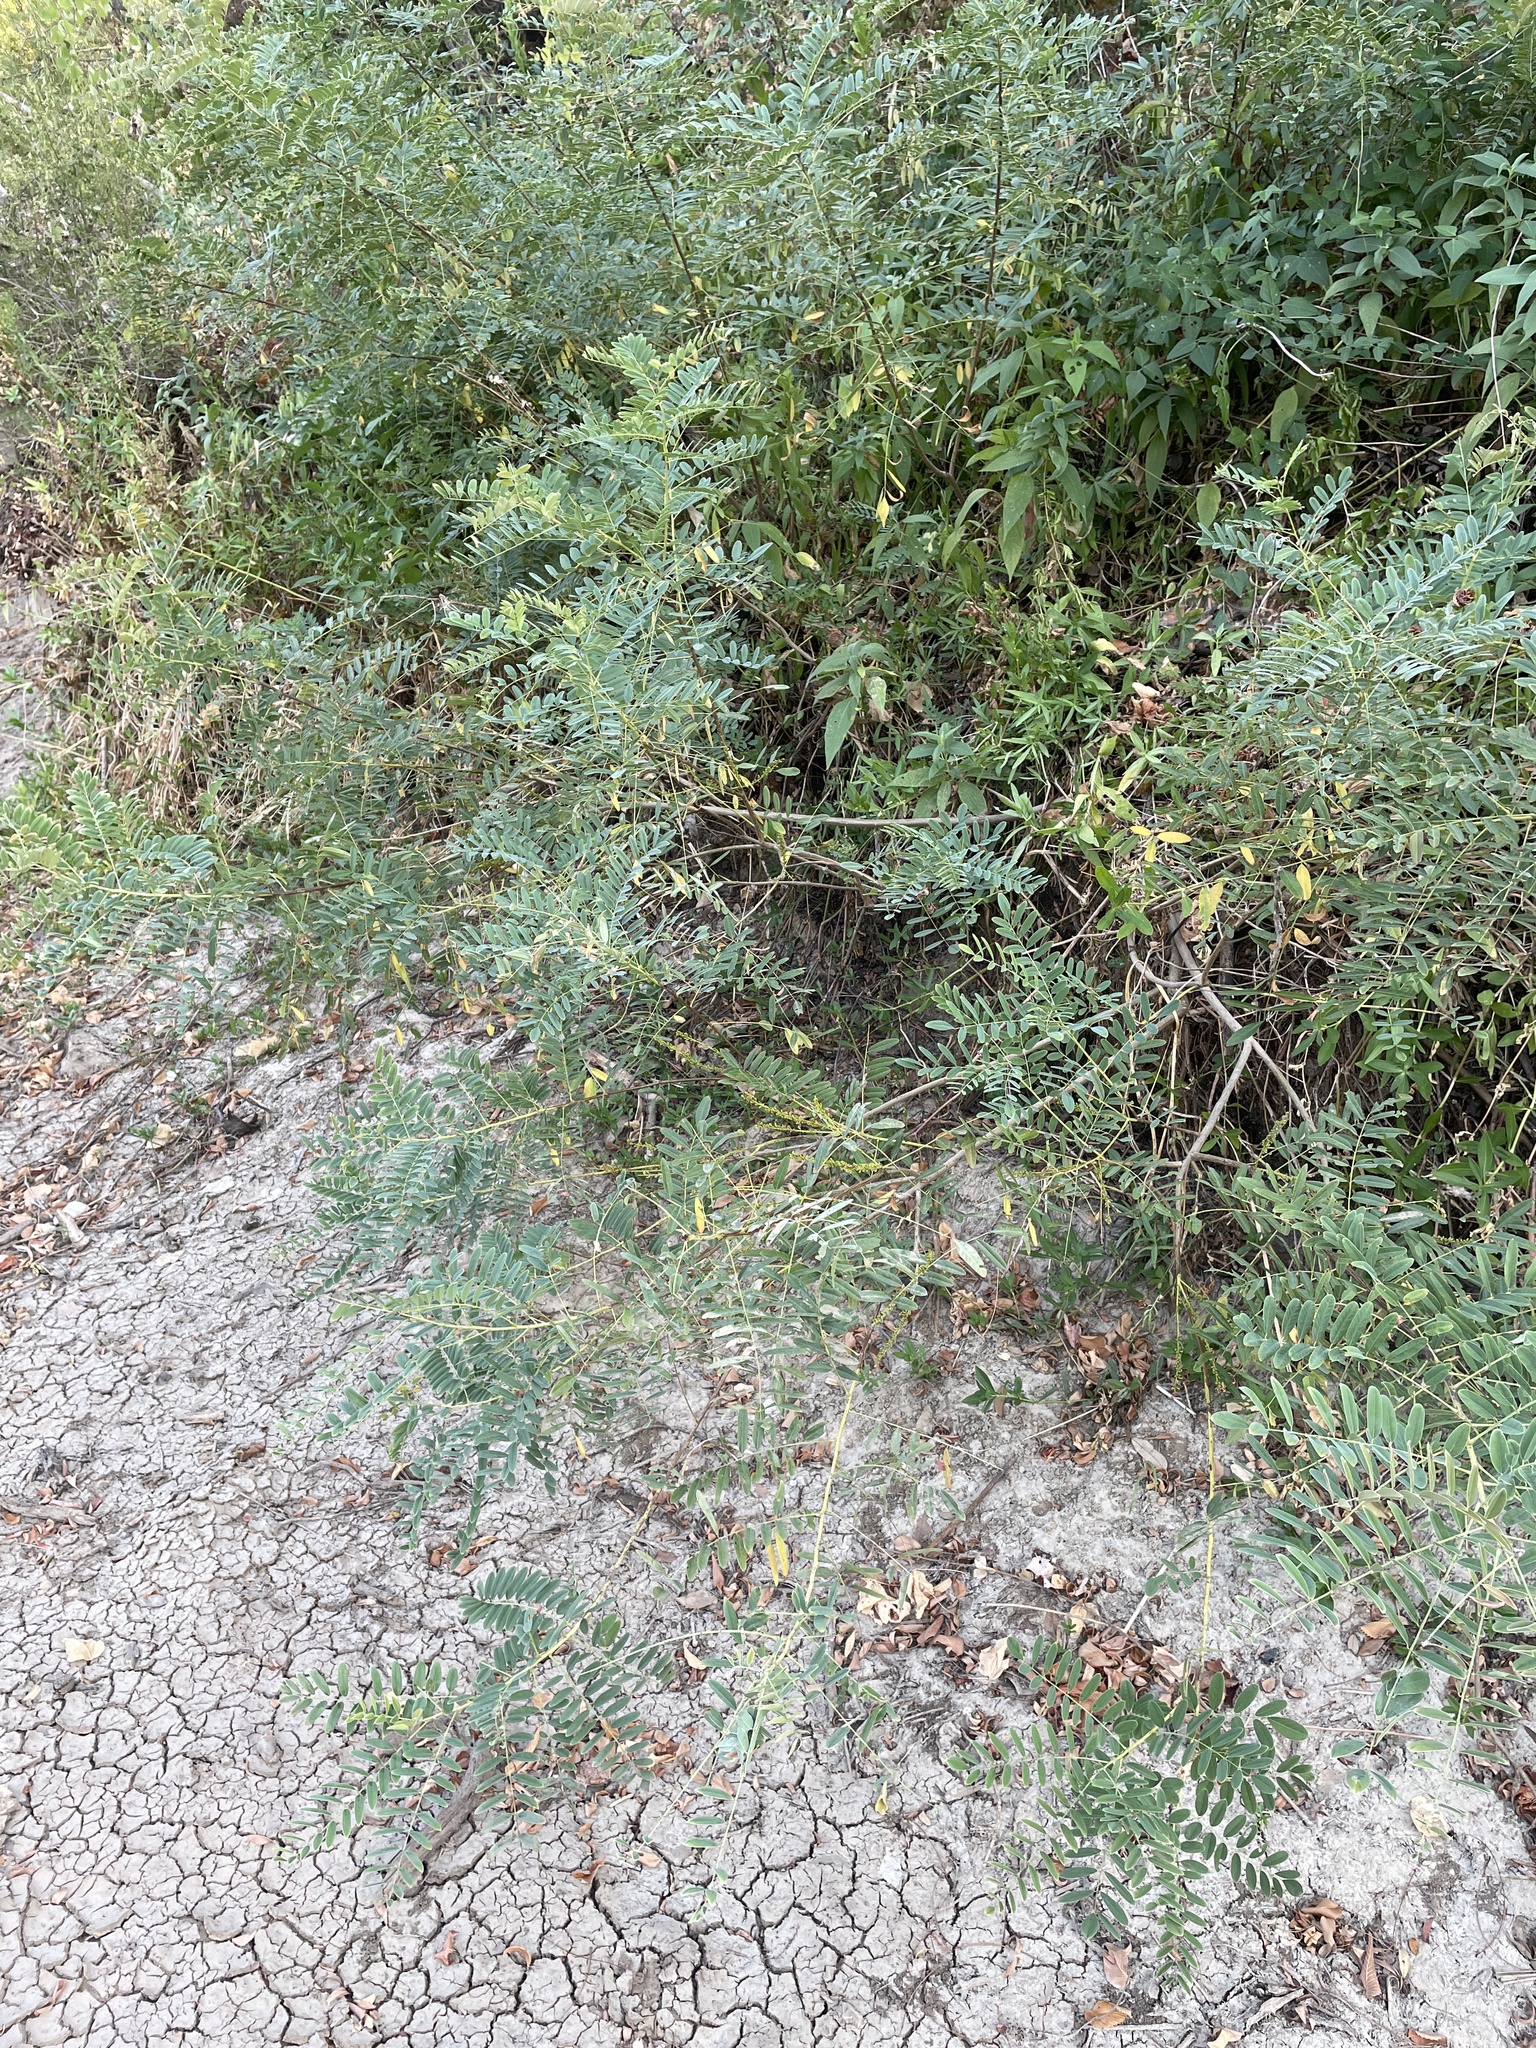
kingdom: Plantae
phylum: Tracheophyta
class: Magnoliopsida
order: Fabales
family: Fabaceae
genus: Amorpha
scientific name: Amorpha fruticosa
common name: False indigo
